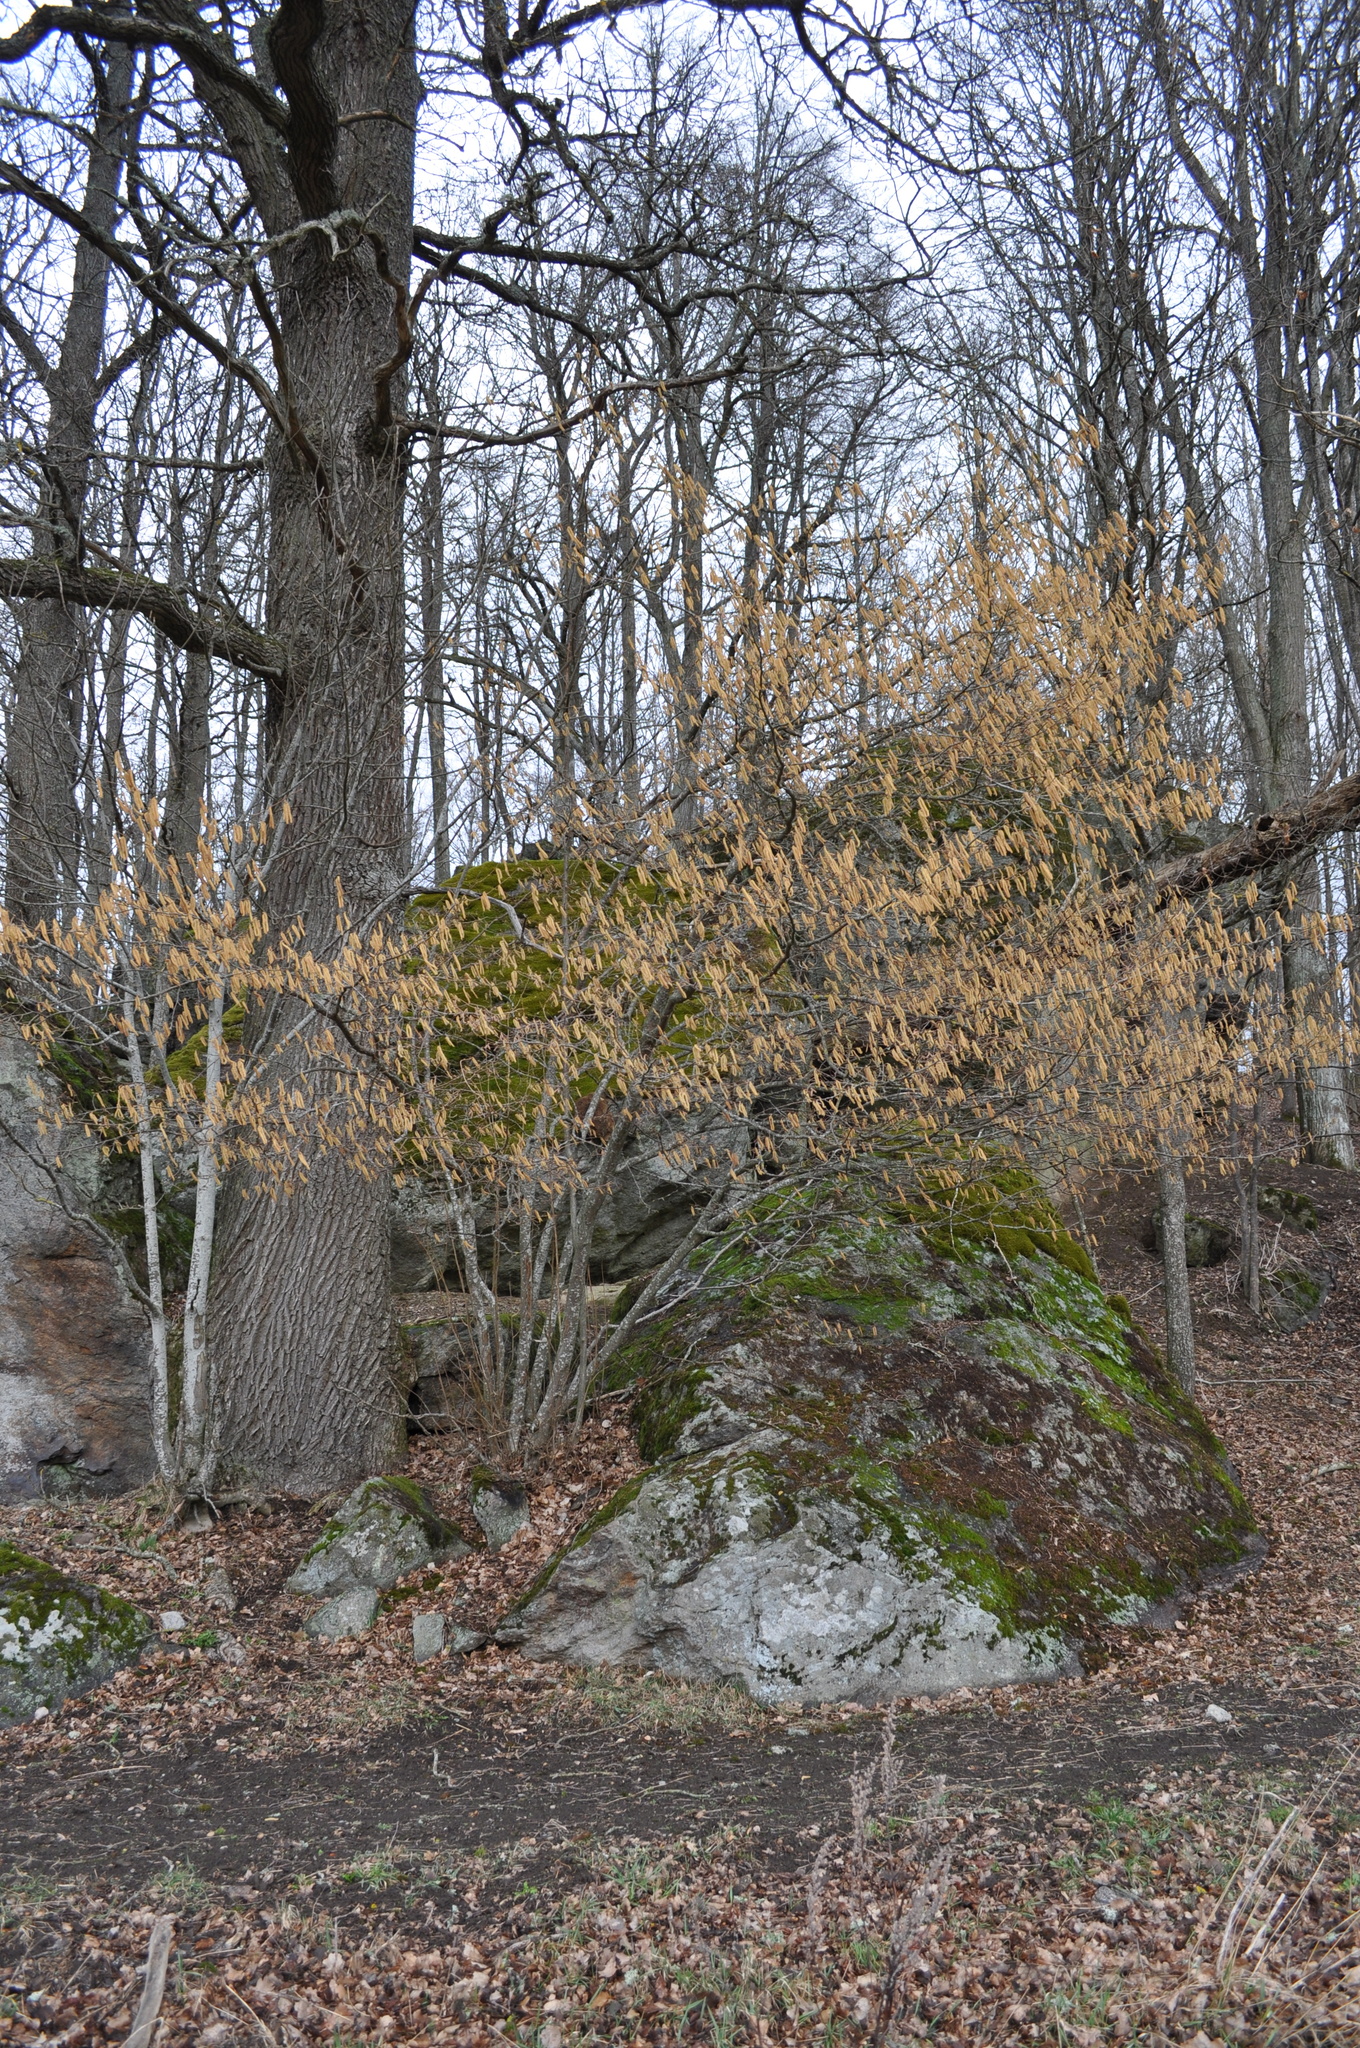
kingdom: Plantae
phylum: Tracheophyta
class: Magnoliopsida
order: Fagales
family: Betulaceae
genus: Corylus
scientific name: Corylus avellana
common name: European hazel
